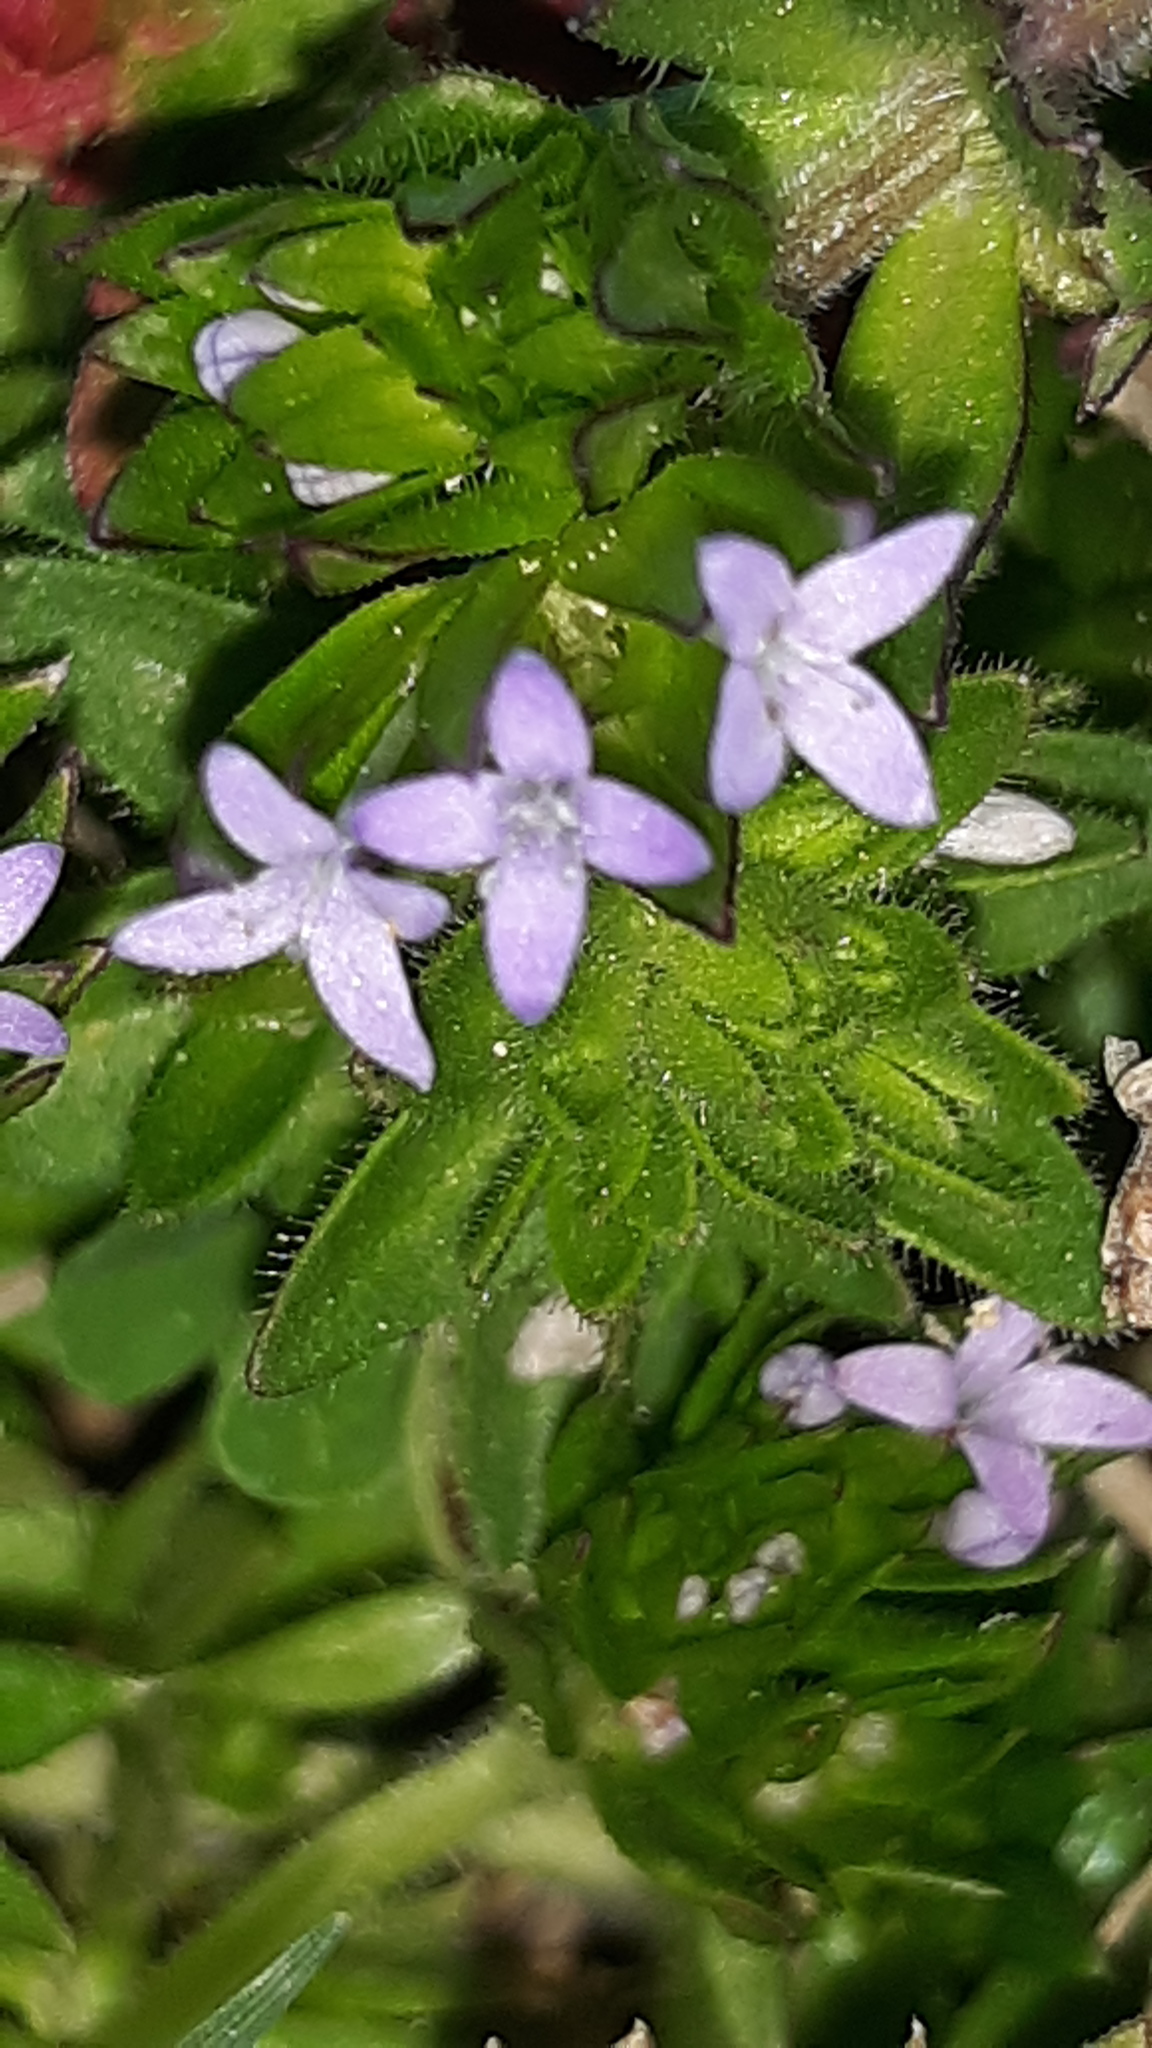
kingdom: Plantae
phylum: Tracheophyta
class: Magnoliopsida
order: Gentianales
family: Rubiaceae
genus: Sherardia
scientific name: Sherardia arvensis
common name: Field madder
